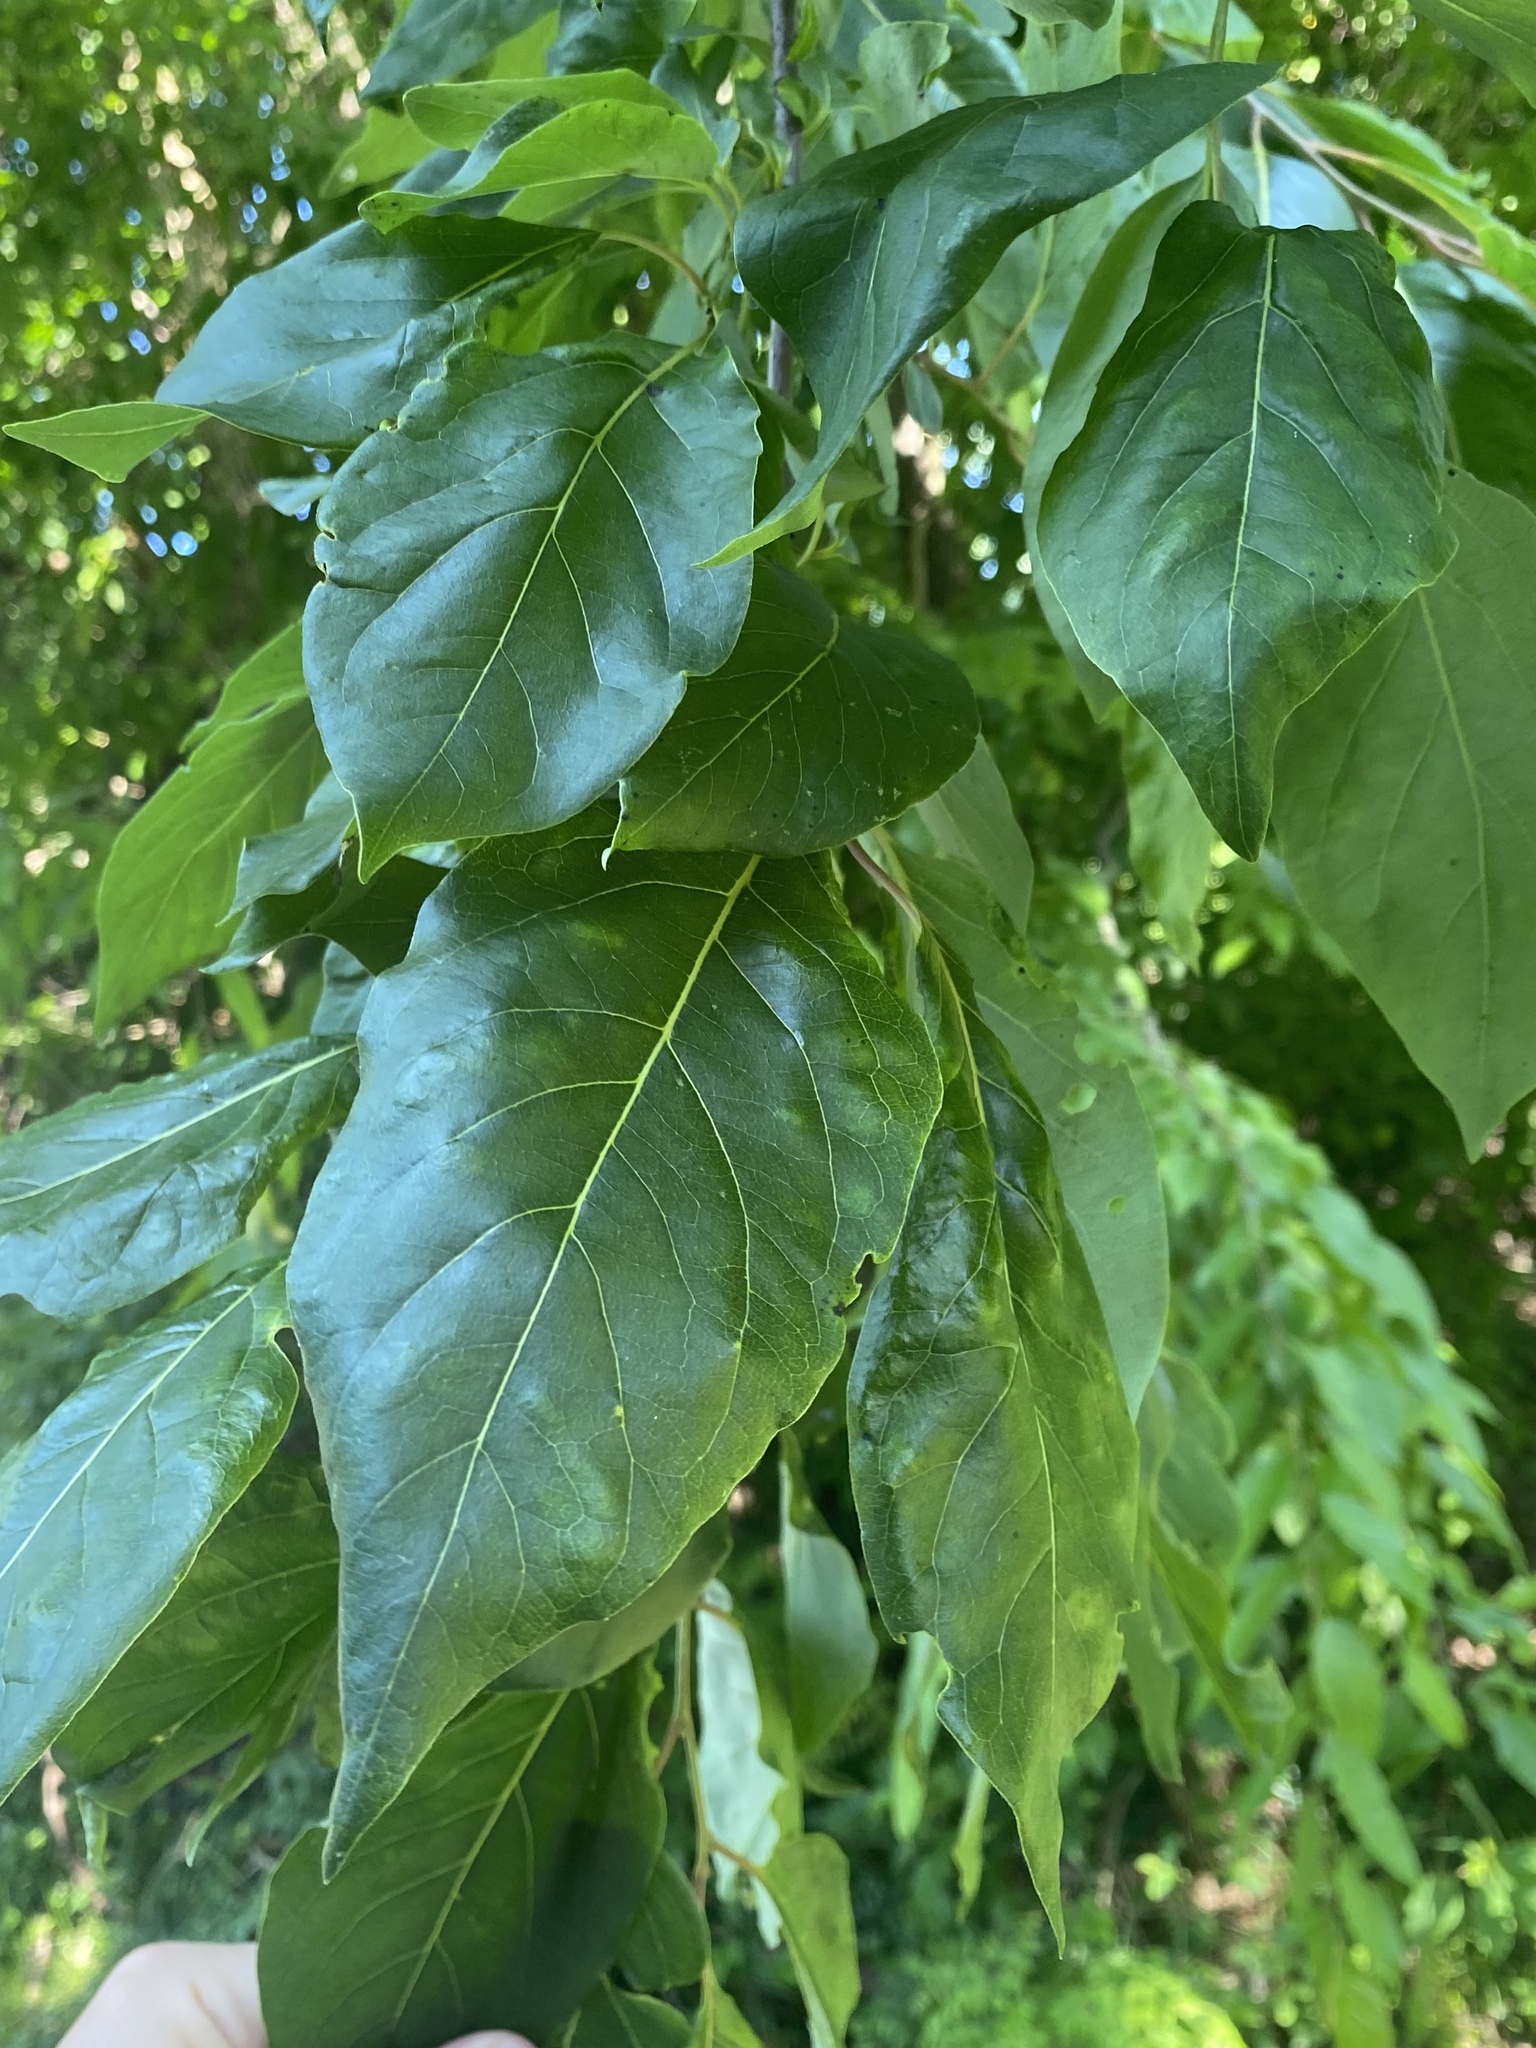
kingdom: Plantae
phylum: Tracheophyta
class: Magnoliopsida
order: Ericales
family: Ebenaceae
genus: Diospyros
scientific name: Diospyros virginiana
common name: Persimmon
